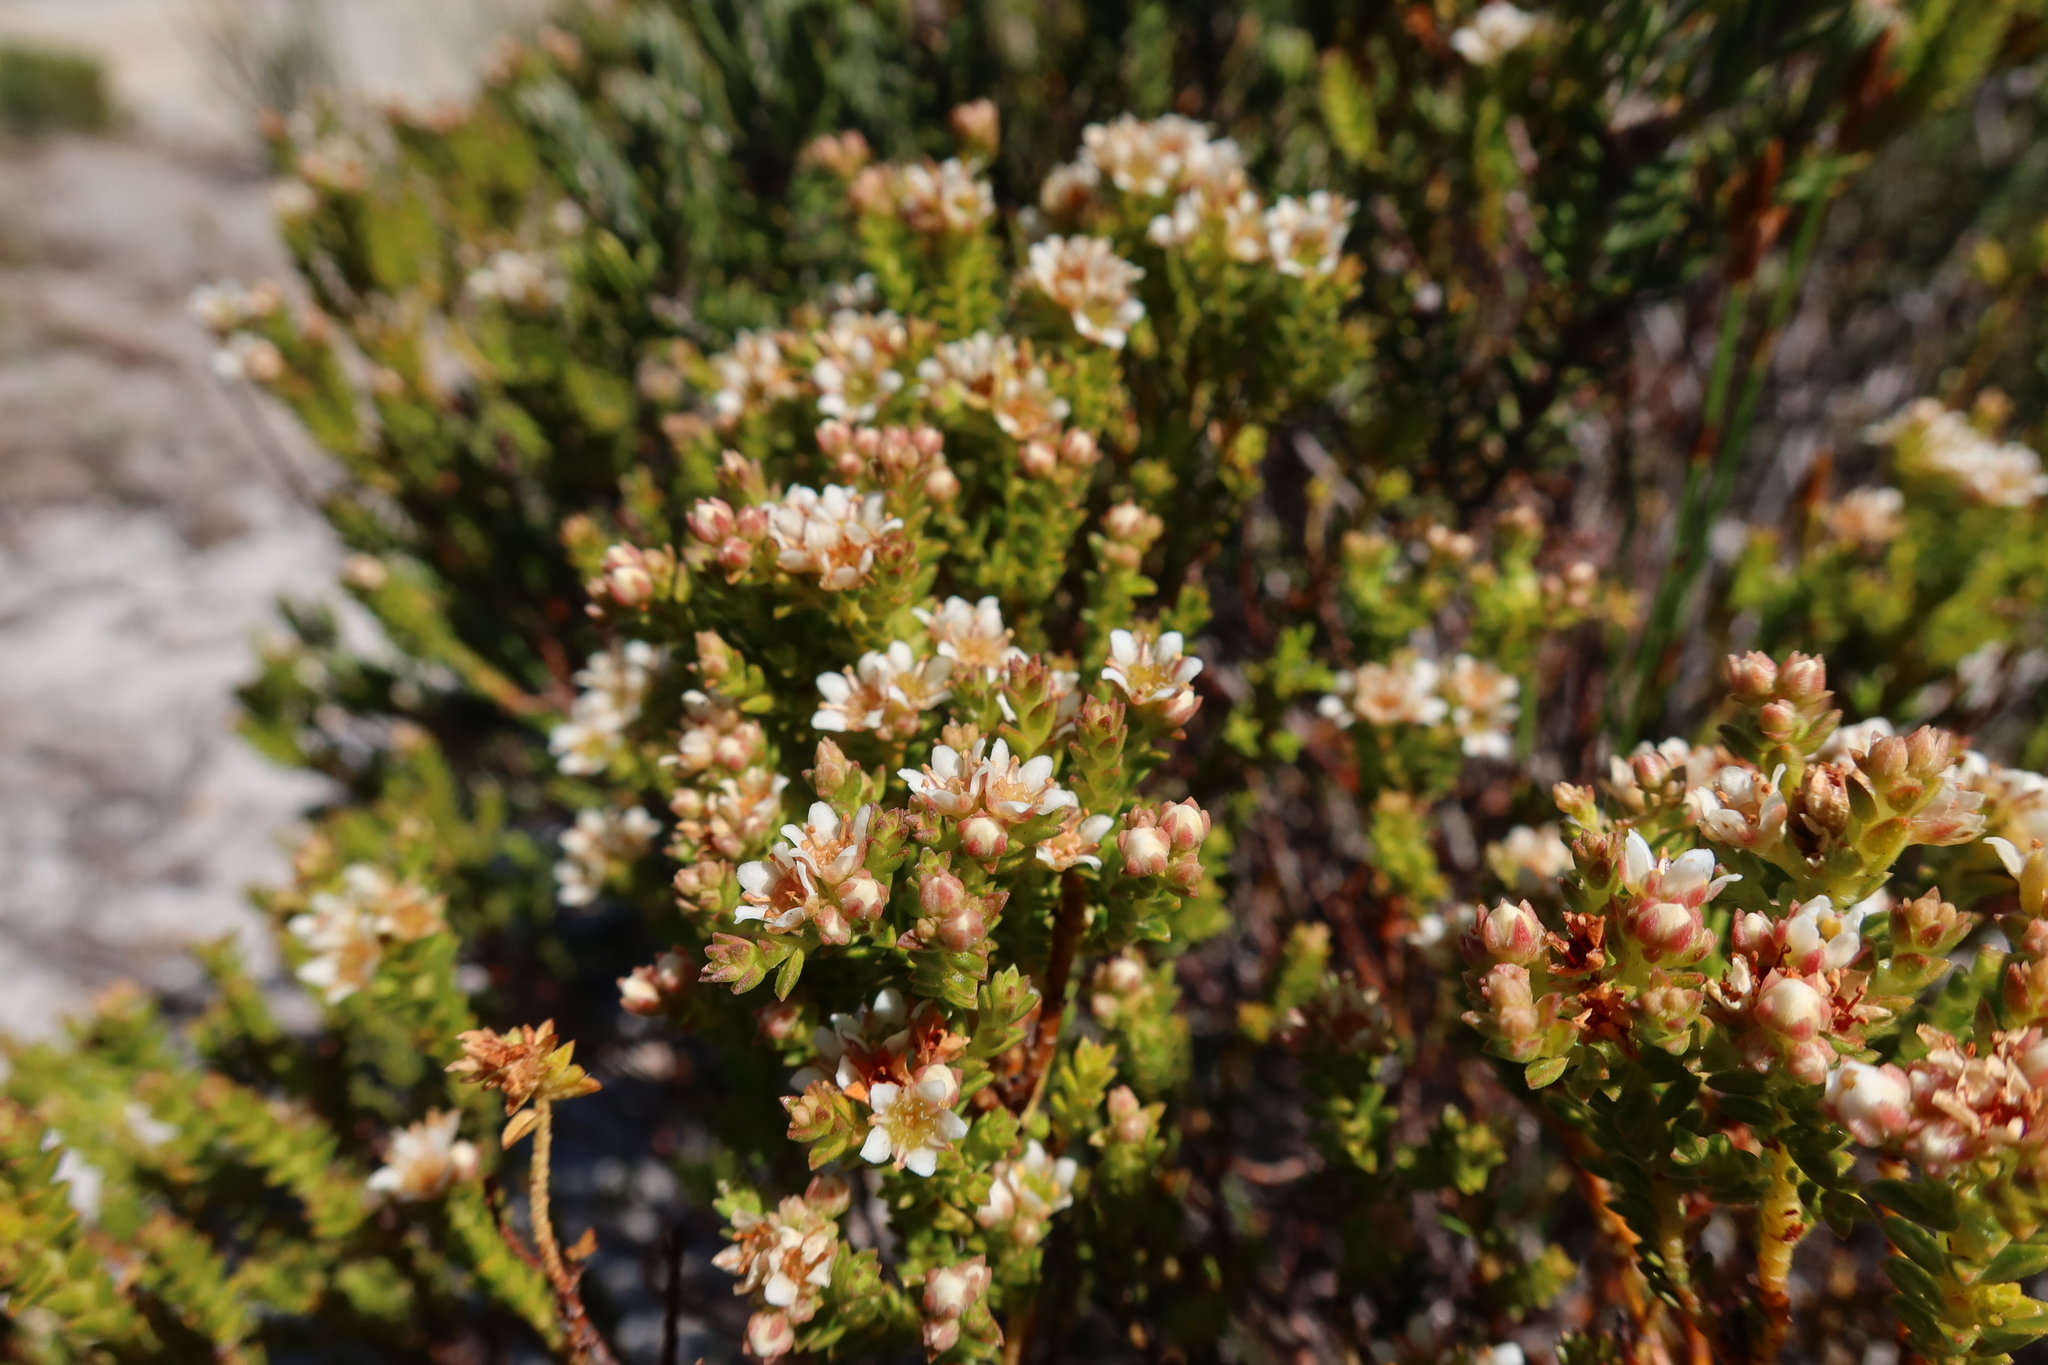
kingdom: Plantae
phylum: Tracheophyta
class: Magnoliopsida
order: Sapindales
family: Rutaceae
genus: Diosma
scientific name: Diosma oppositifolia
